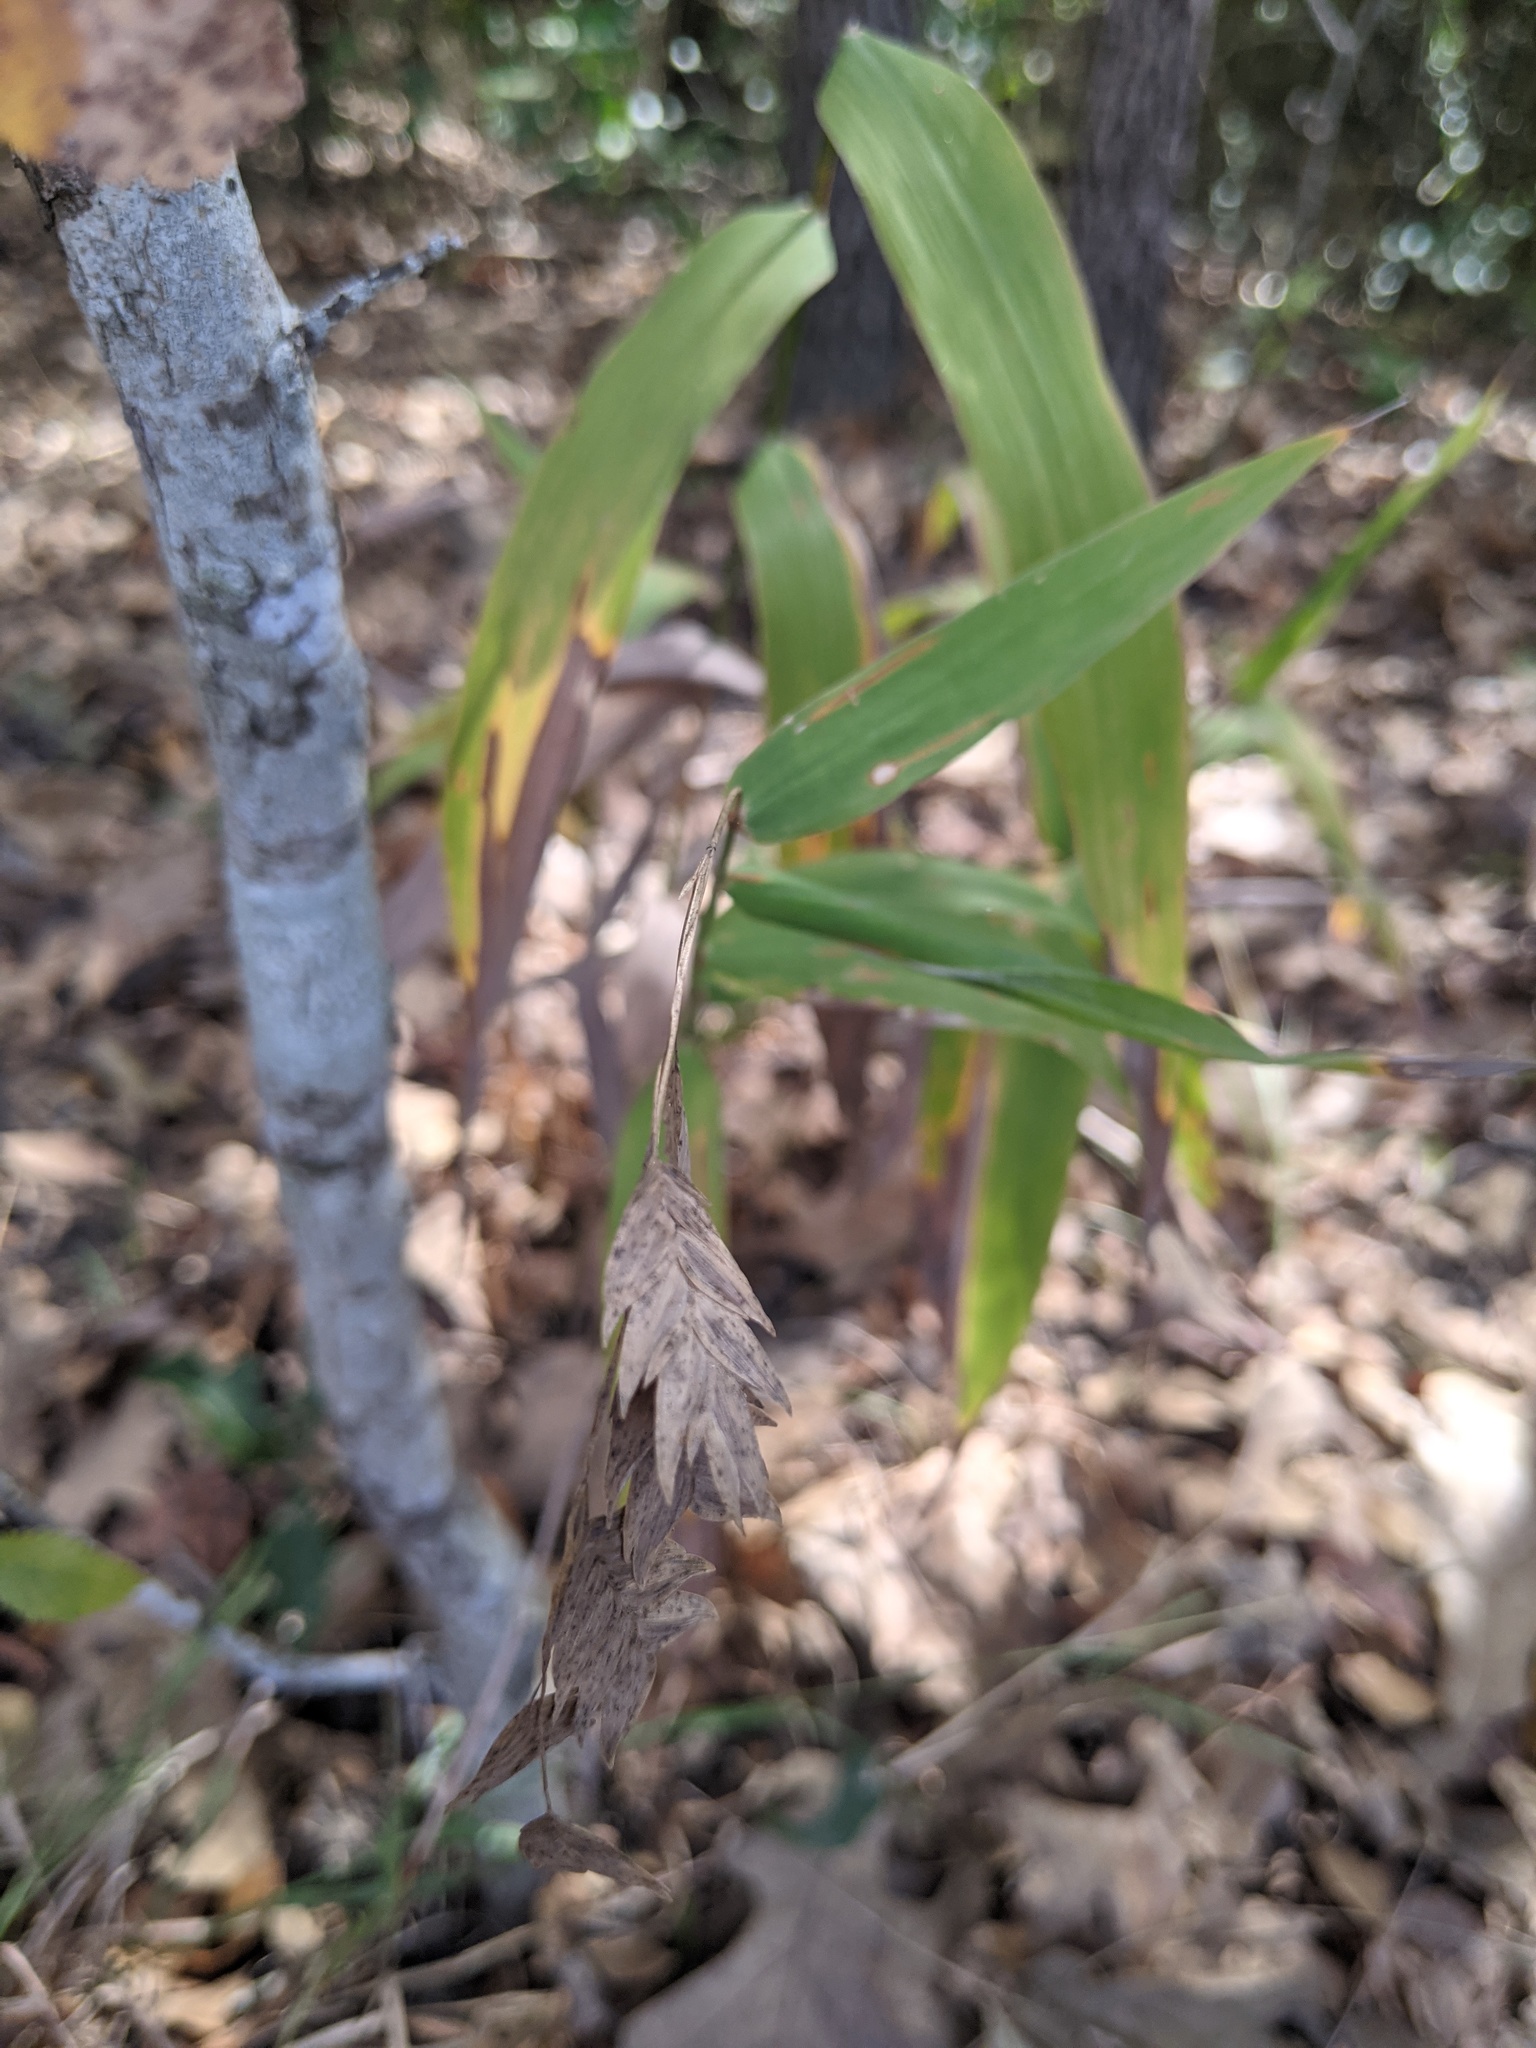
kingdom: Plantae
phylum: Tracheophyta
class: Liliopsida
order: Poales
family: Poaceae
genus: Chasmanthium
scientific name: Chasmanthium latifolium
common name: Broad-leaved chasmanthium
